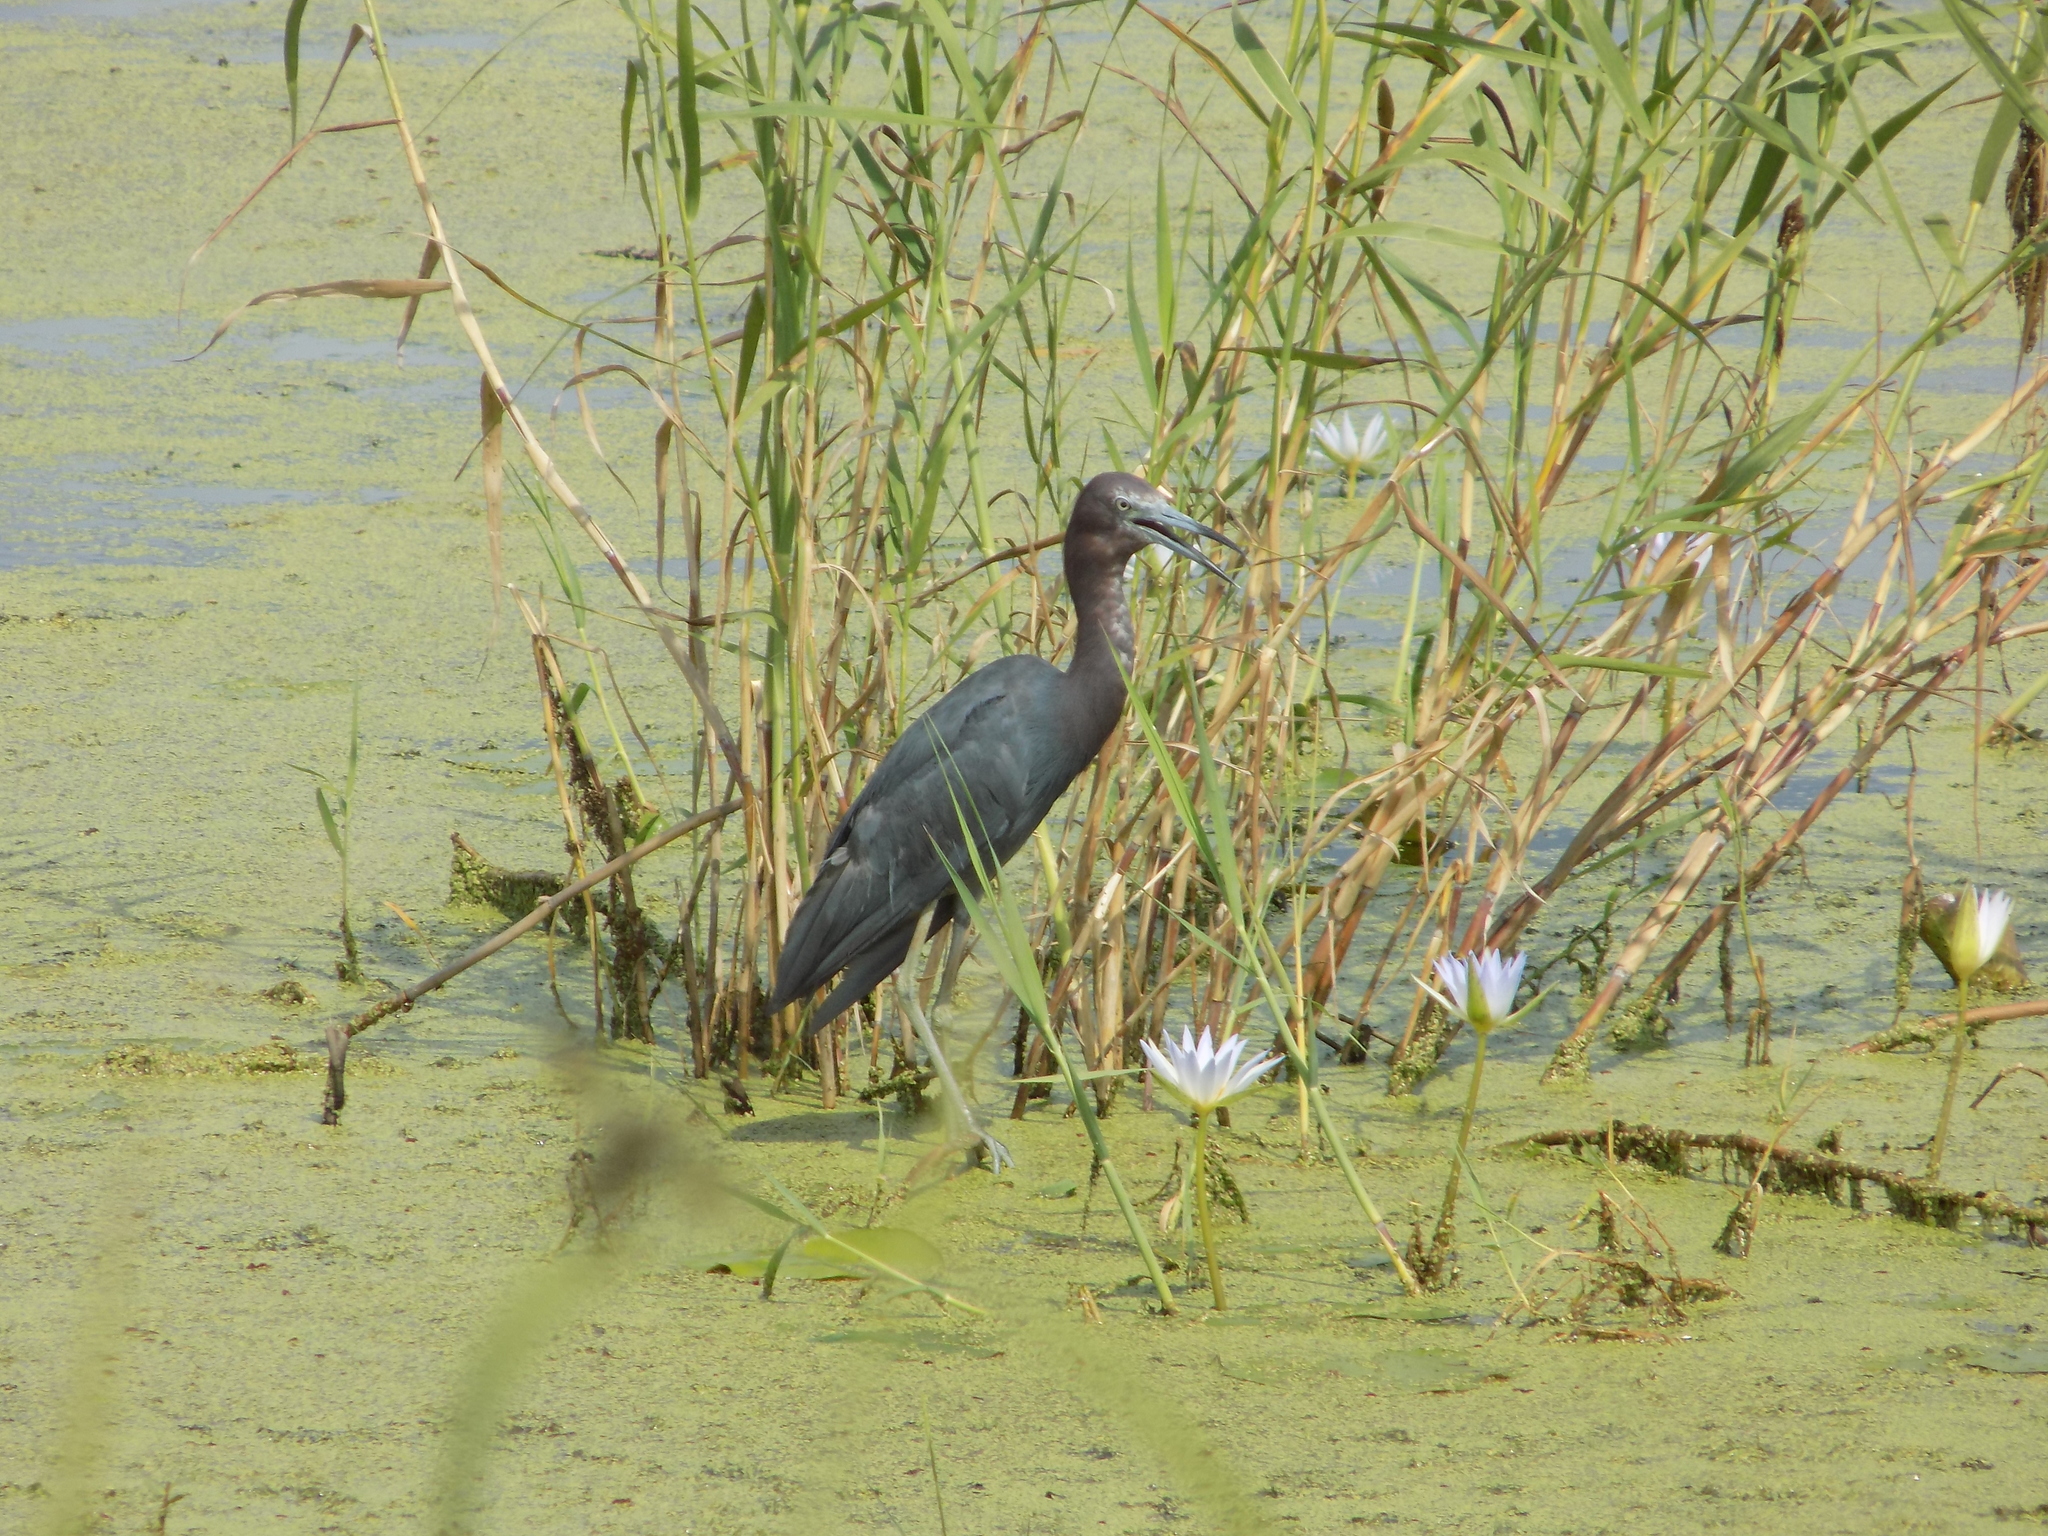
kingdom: Animalia
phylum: Chordata
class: Aves
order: Pelecaniformes
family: Ardeidae
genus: Egretta
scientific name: Egretta caerulea
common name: Little blue heron
